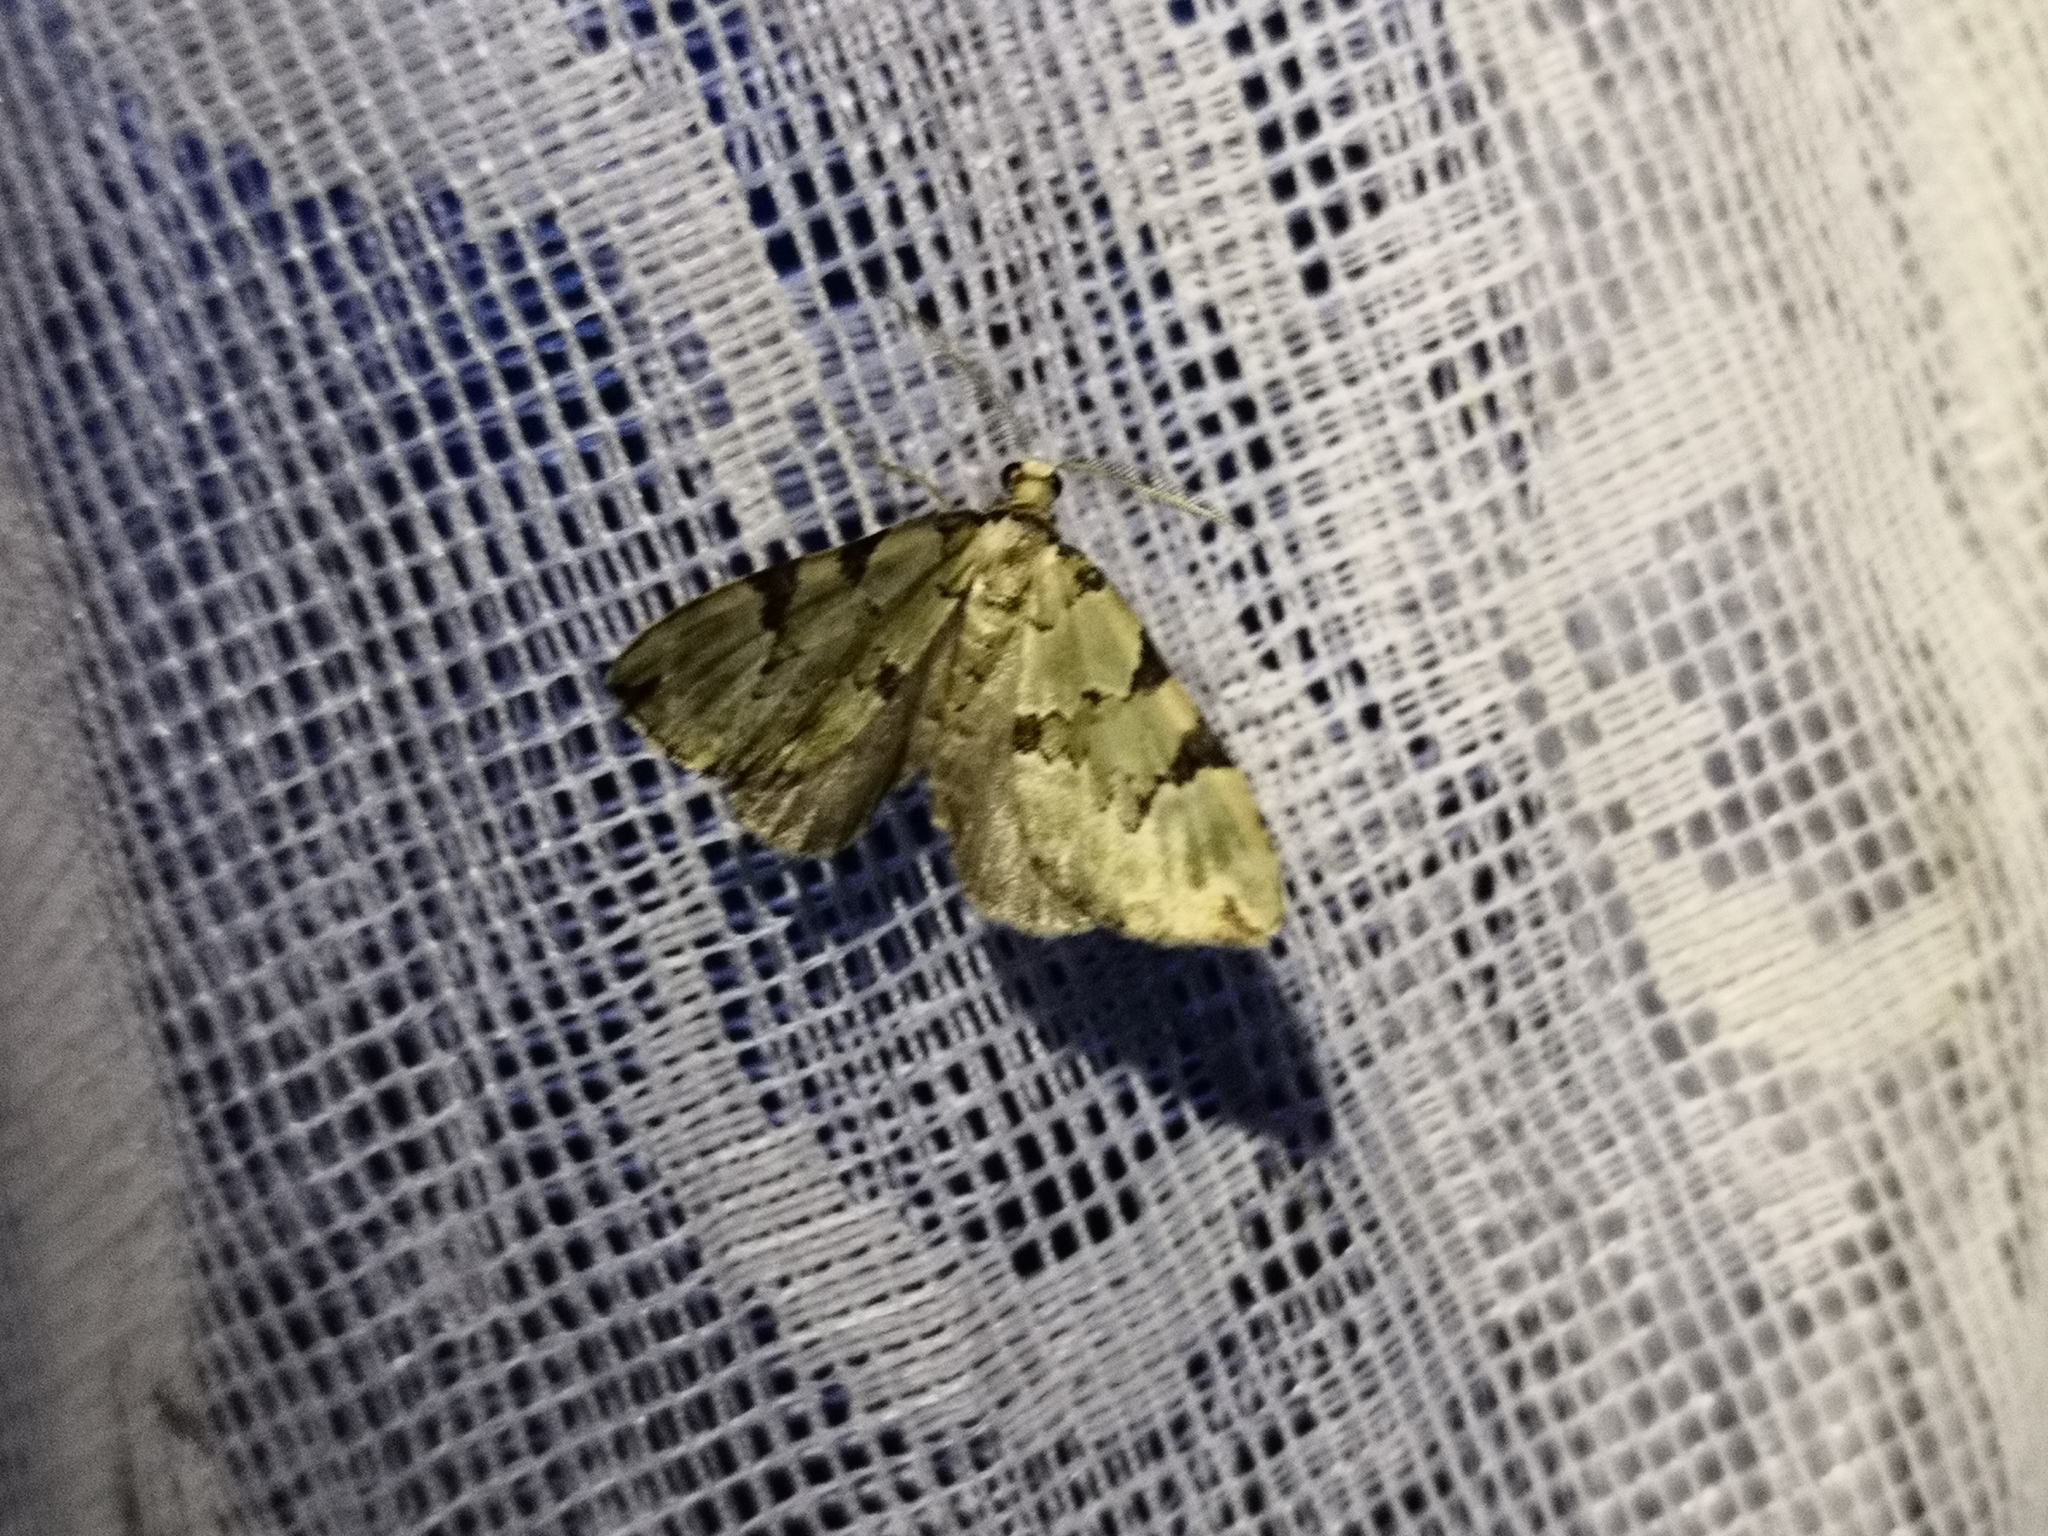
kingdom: Animalia
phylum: Arthropoda
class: Insecta
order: Lepidoptera
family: Geometridae
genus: Colostygia
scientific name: Colostygia pectinataria
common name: Green carpet
